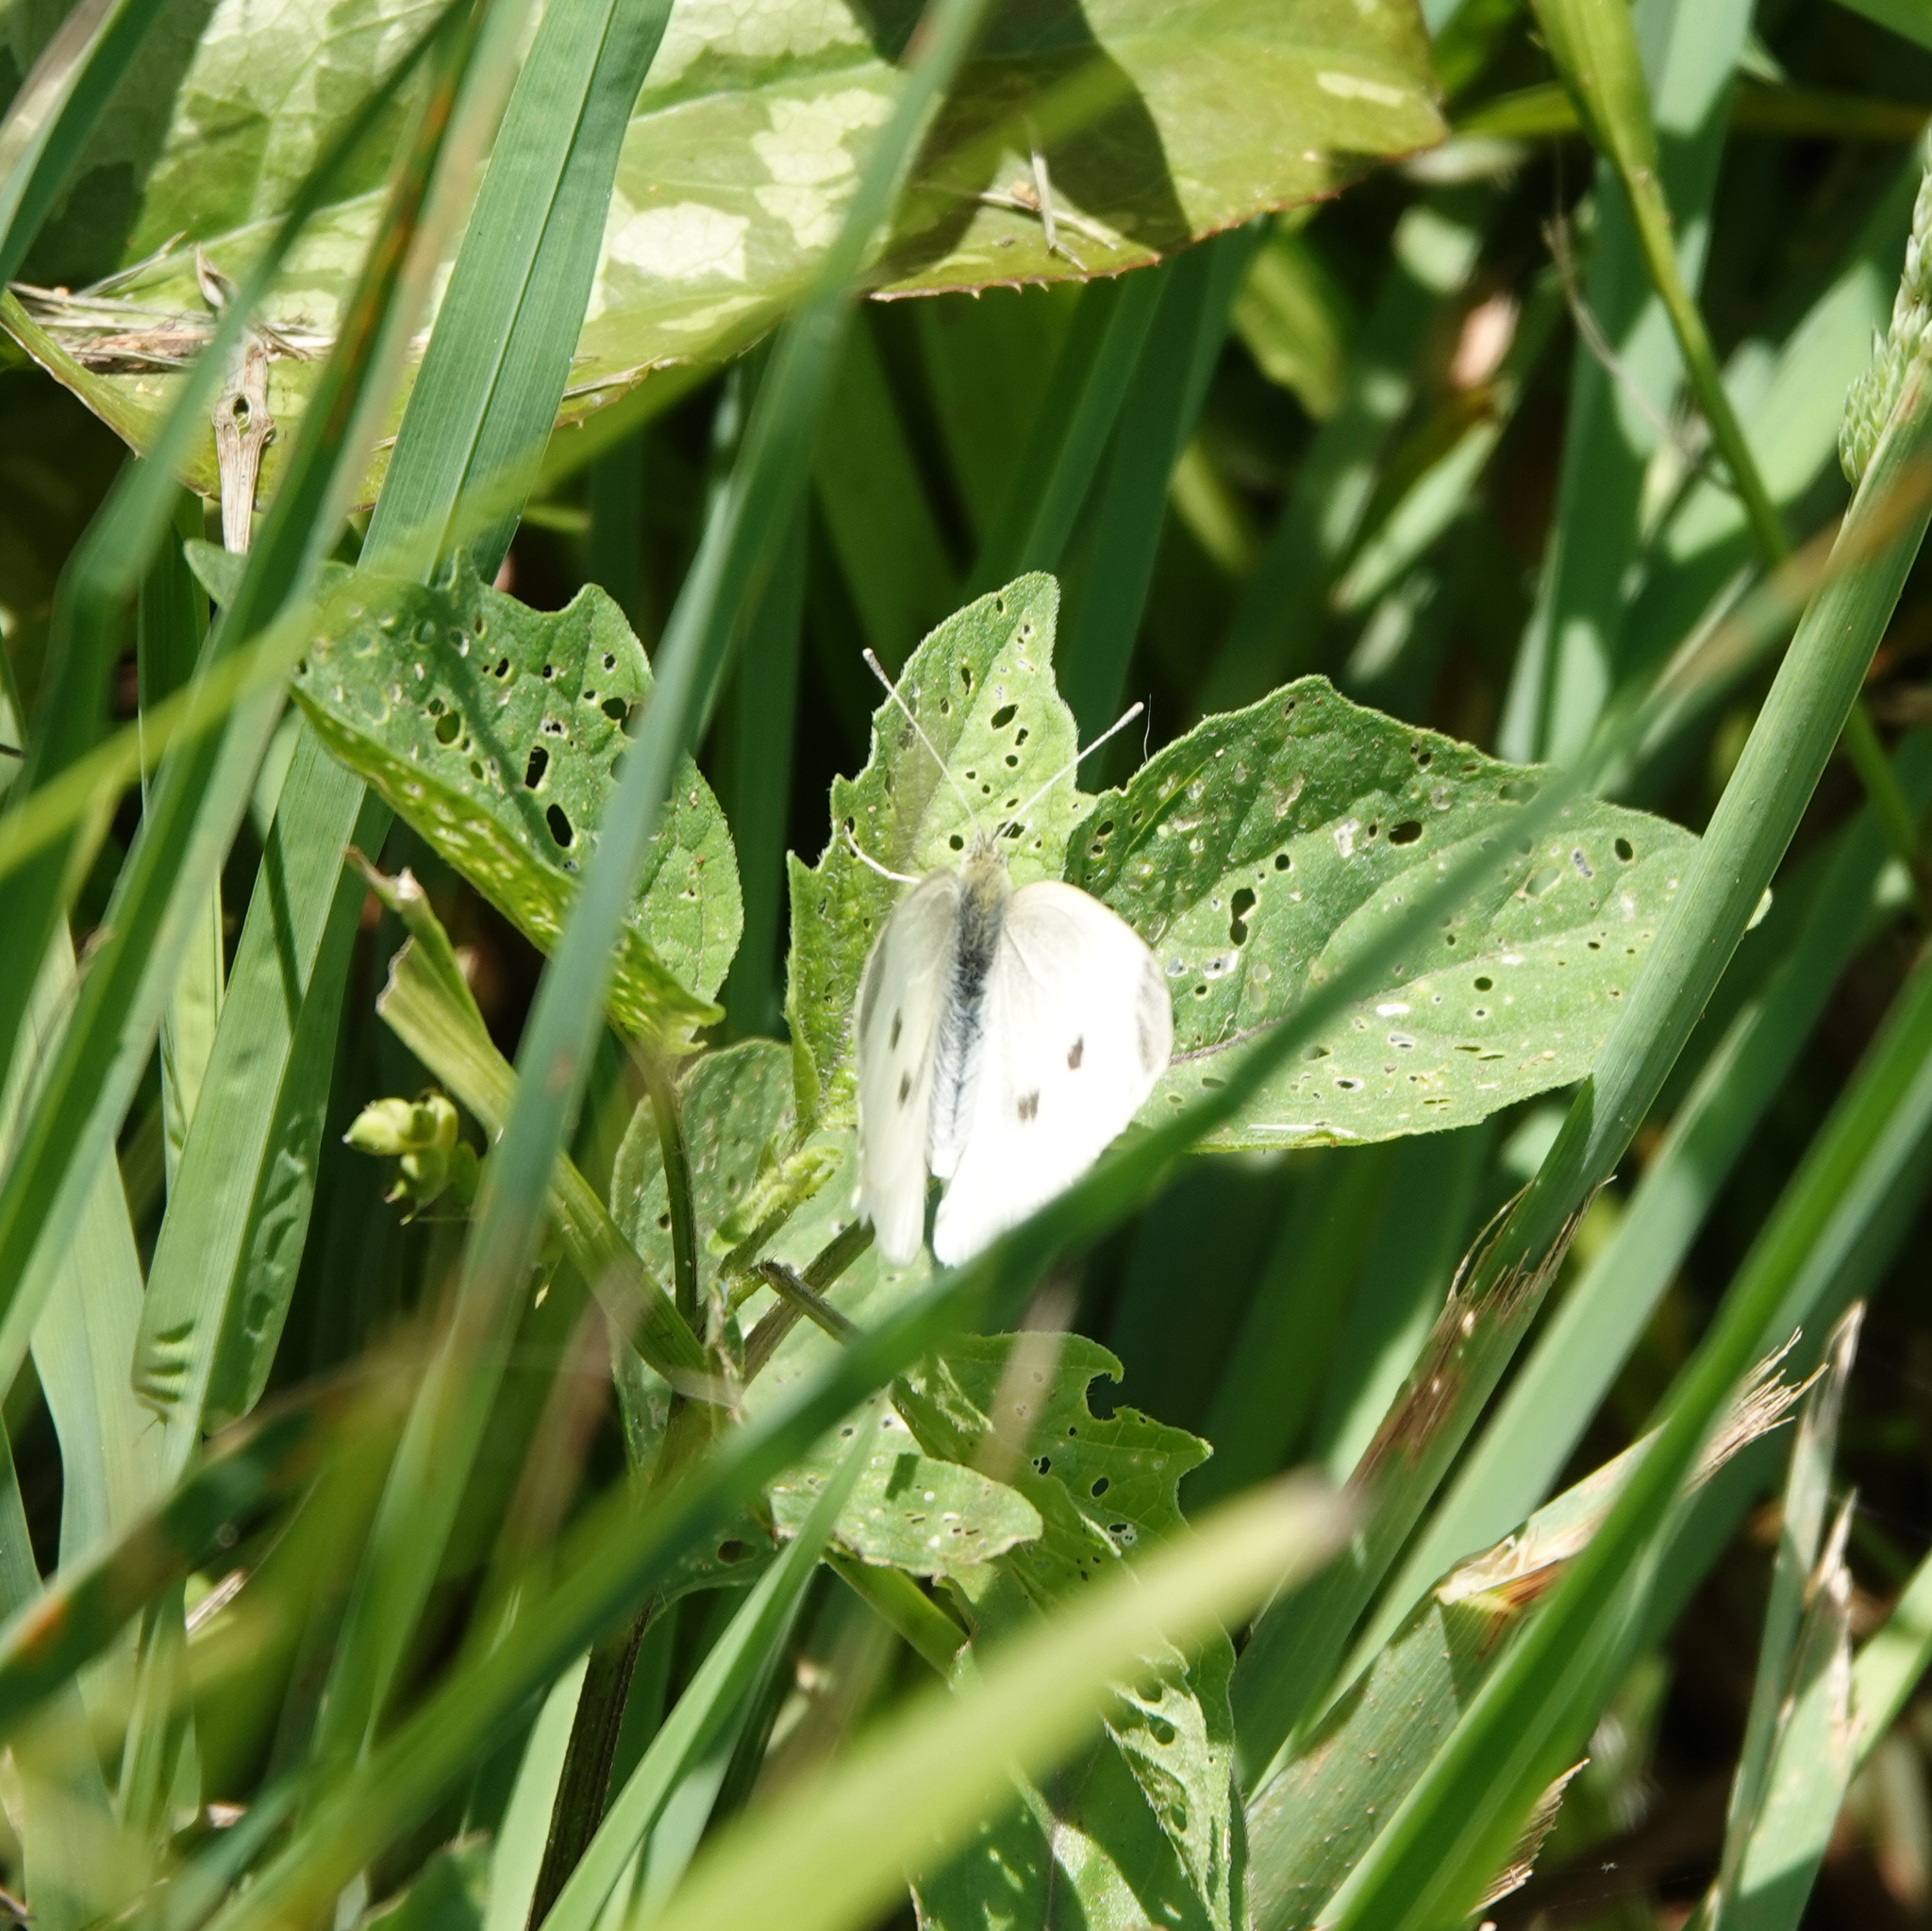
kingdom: Animalia
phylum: Arthropoda
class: Insecta
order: Lepidoptera
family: Pieridae
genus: Pieris
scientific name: Pieris rapae
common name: Small white
